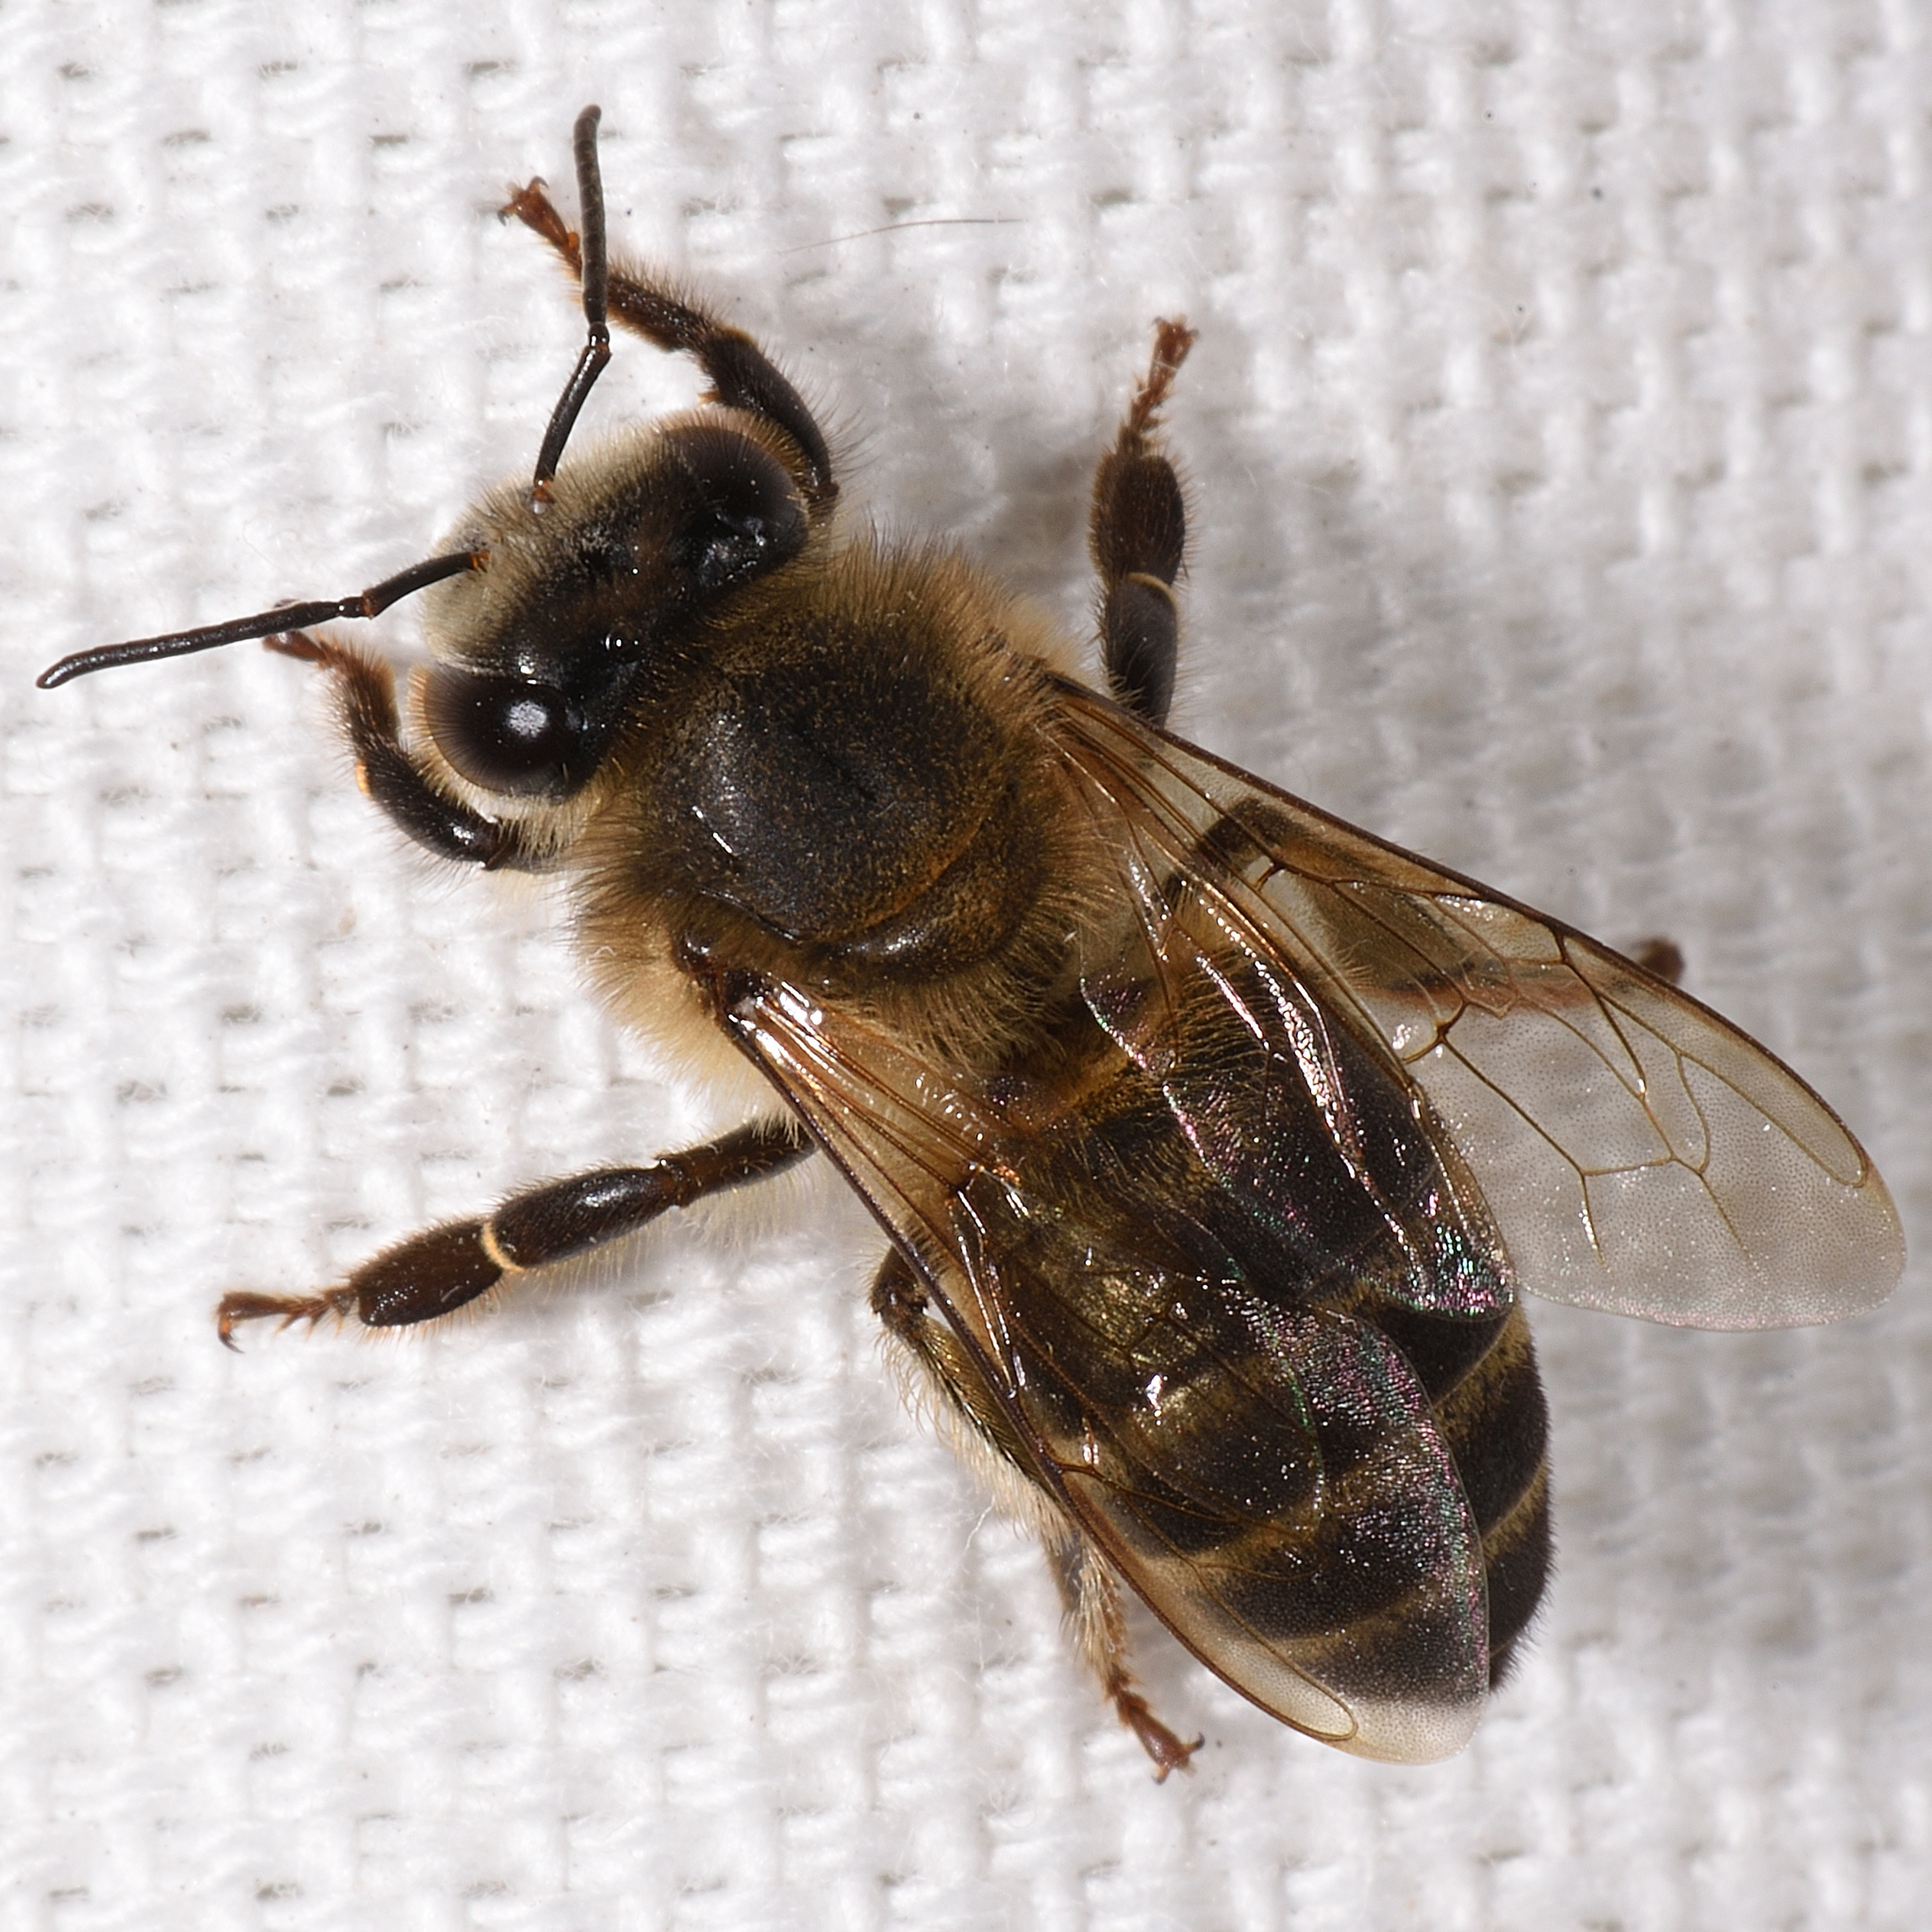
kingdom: Animalia
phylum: Arthropoda
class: Insecta
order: Hymenoptera
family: Apidae
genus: Apis
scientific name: Apis mellifera
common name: Honey bee
